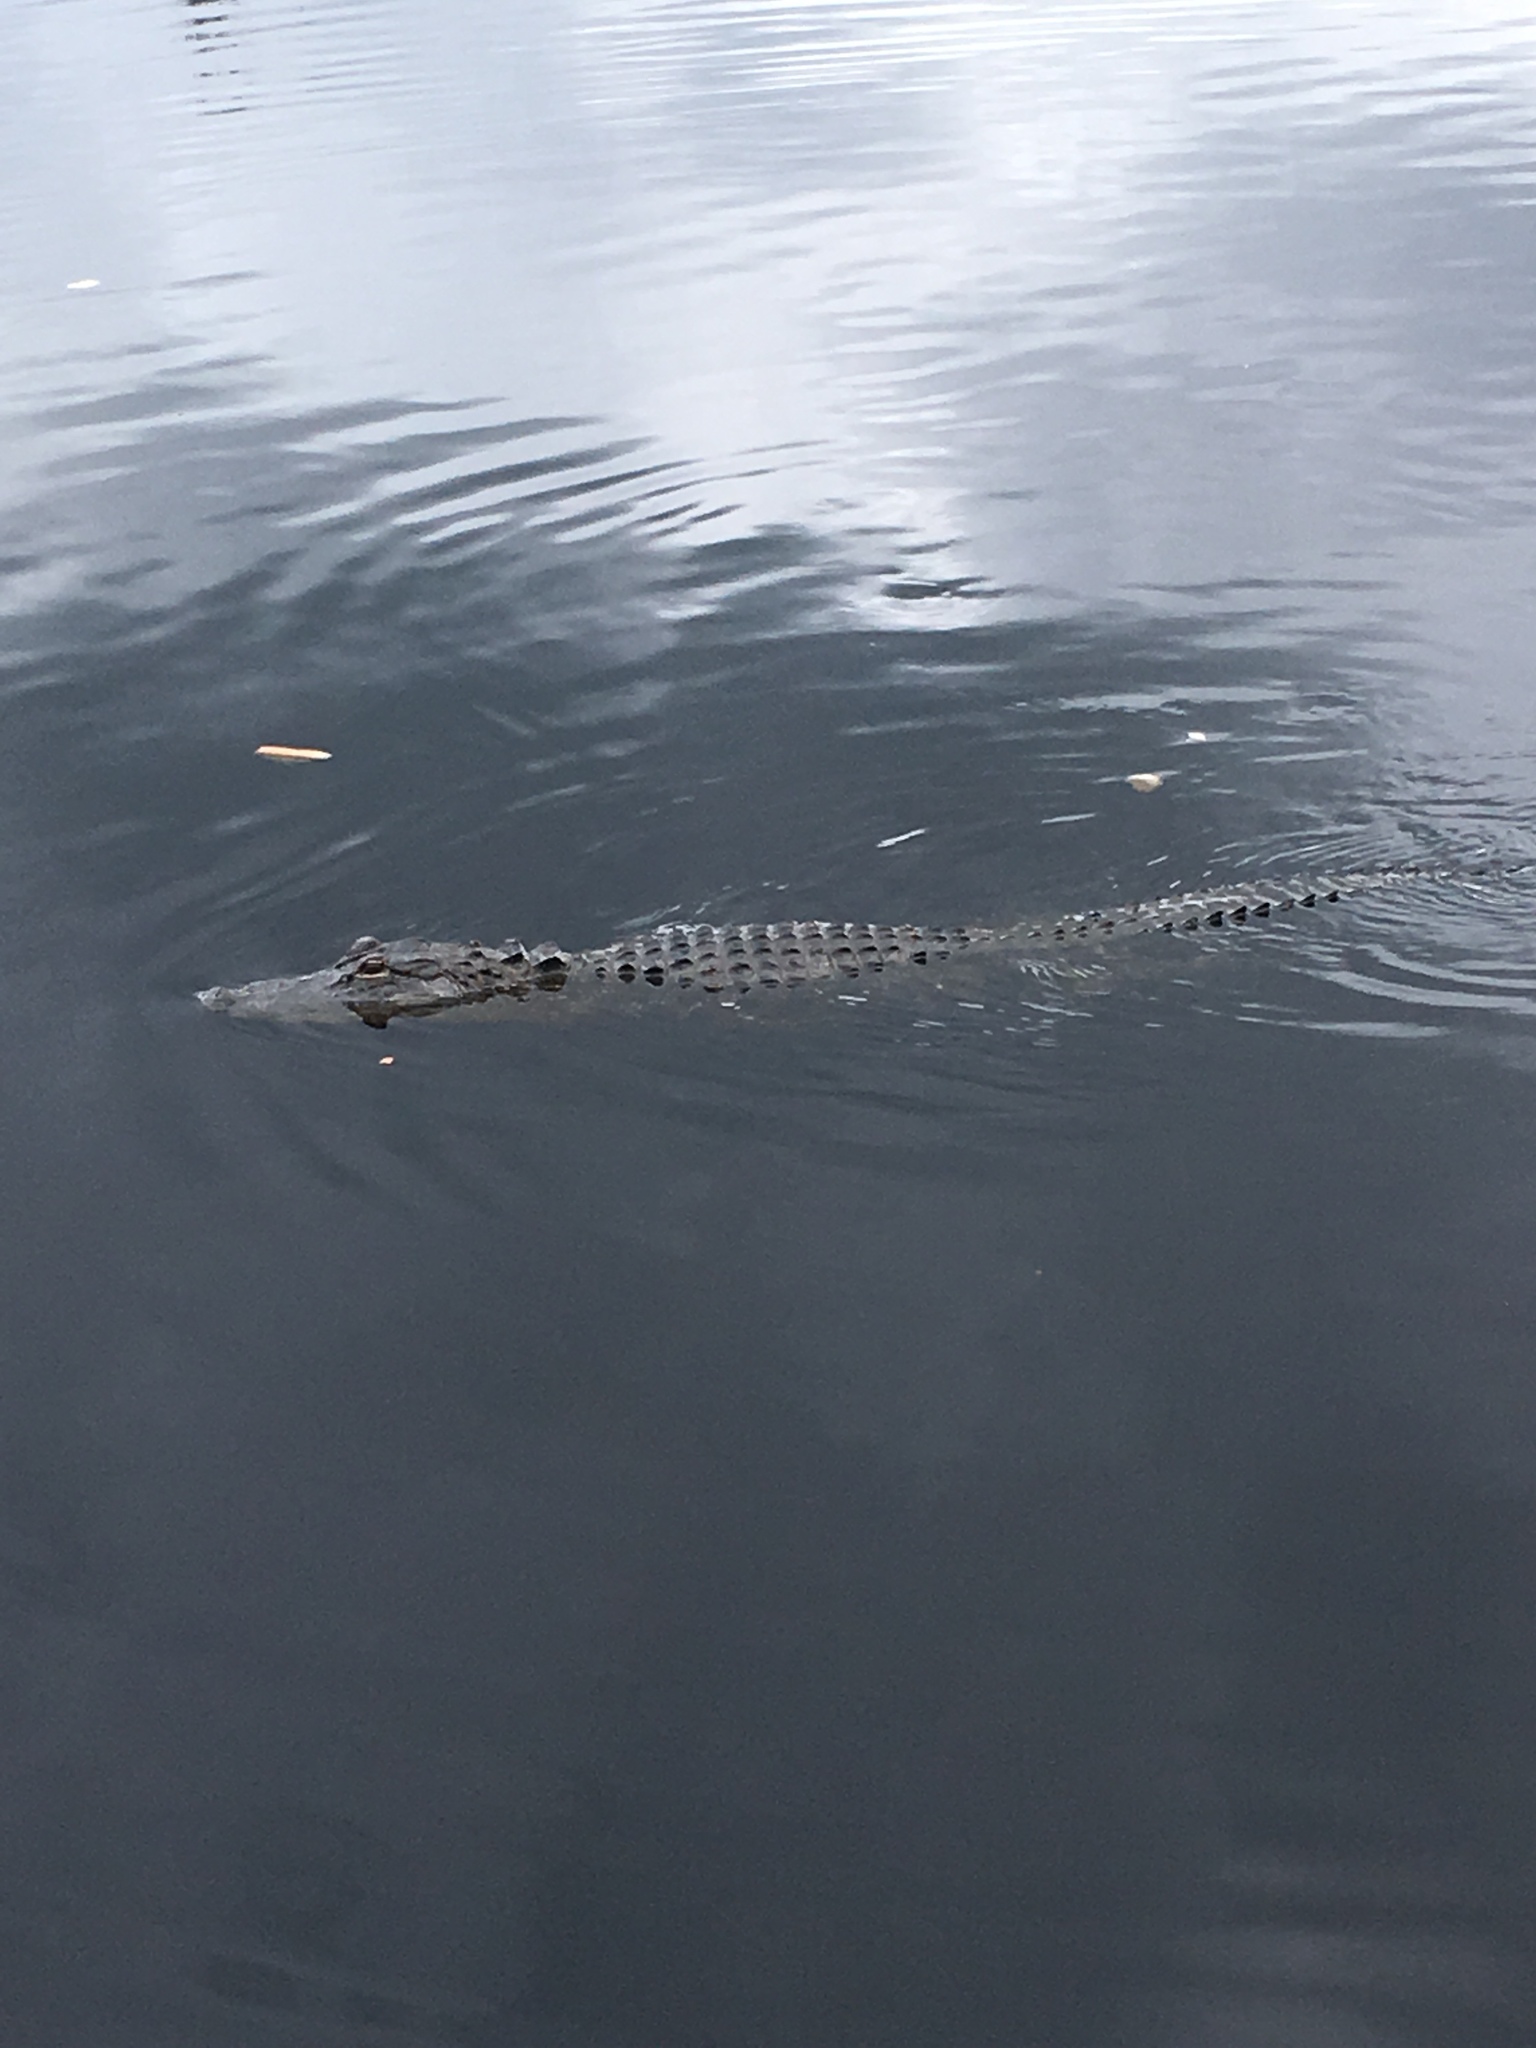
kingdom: Animalia
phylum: Chordata
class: Crocodylia
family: Alligatoridae
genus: Alligator
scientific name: Alligator mississippiensis
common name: American alligator
